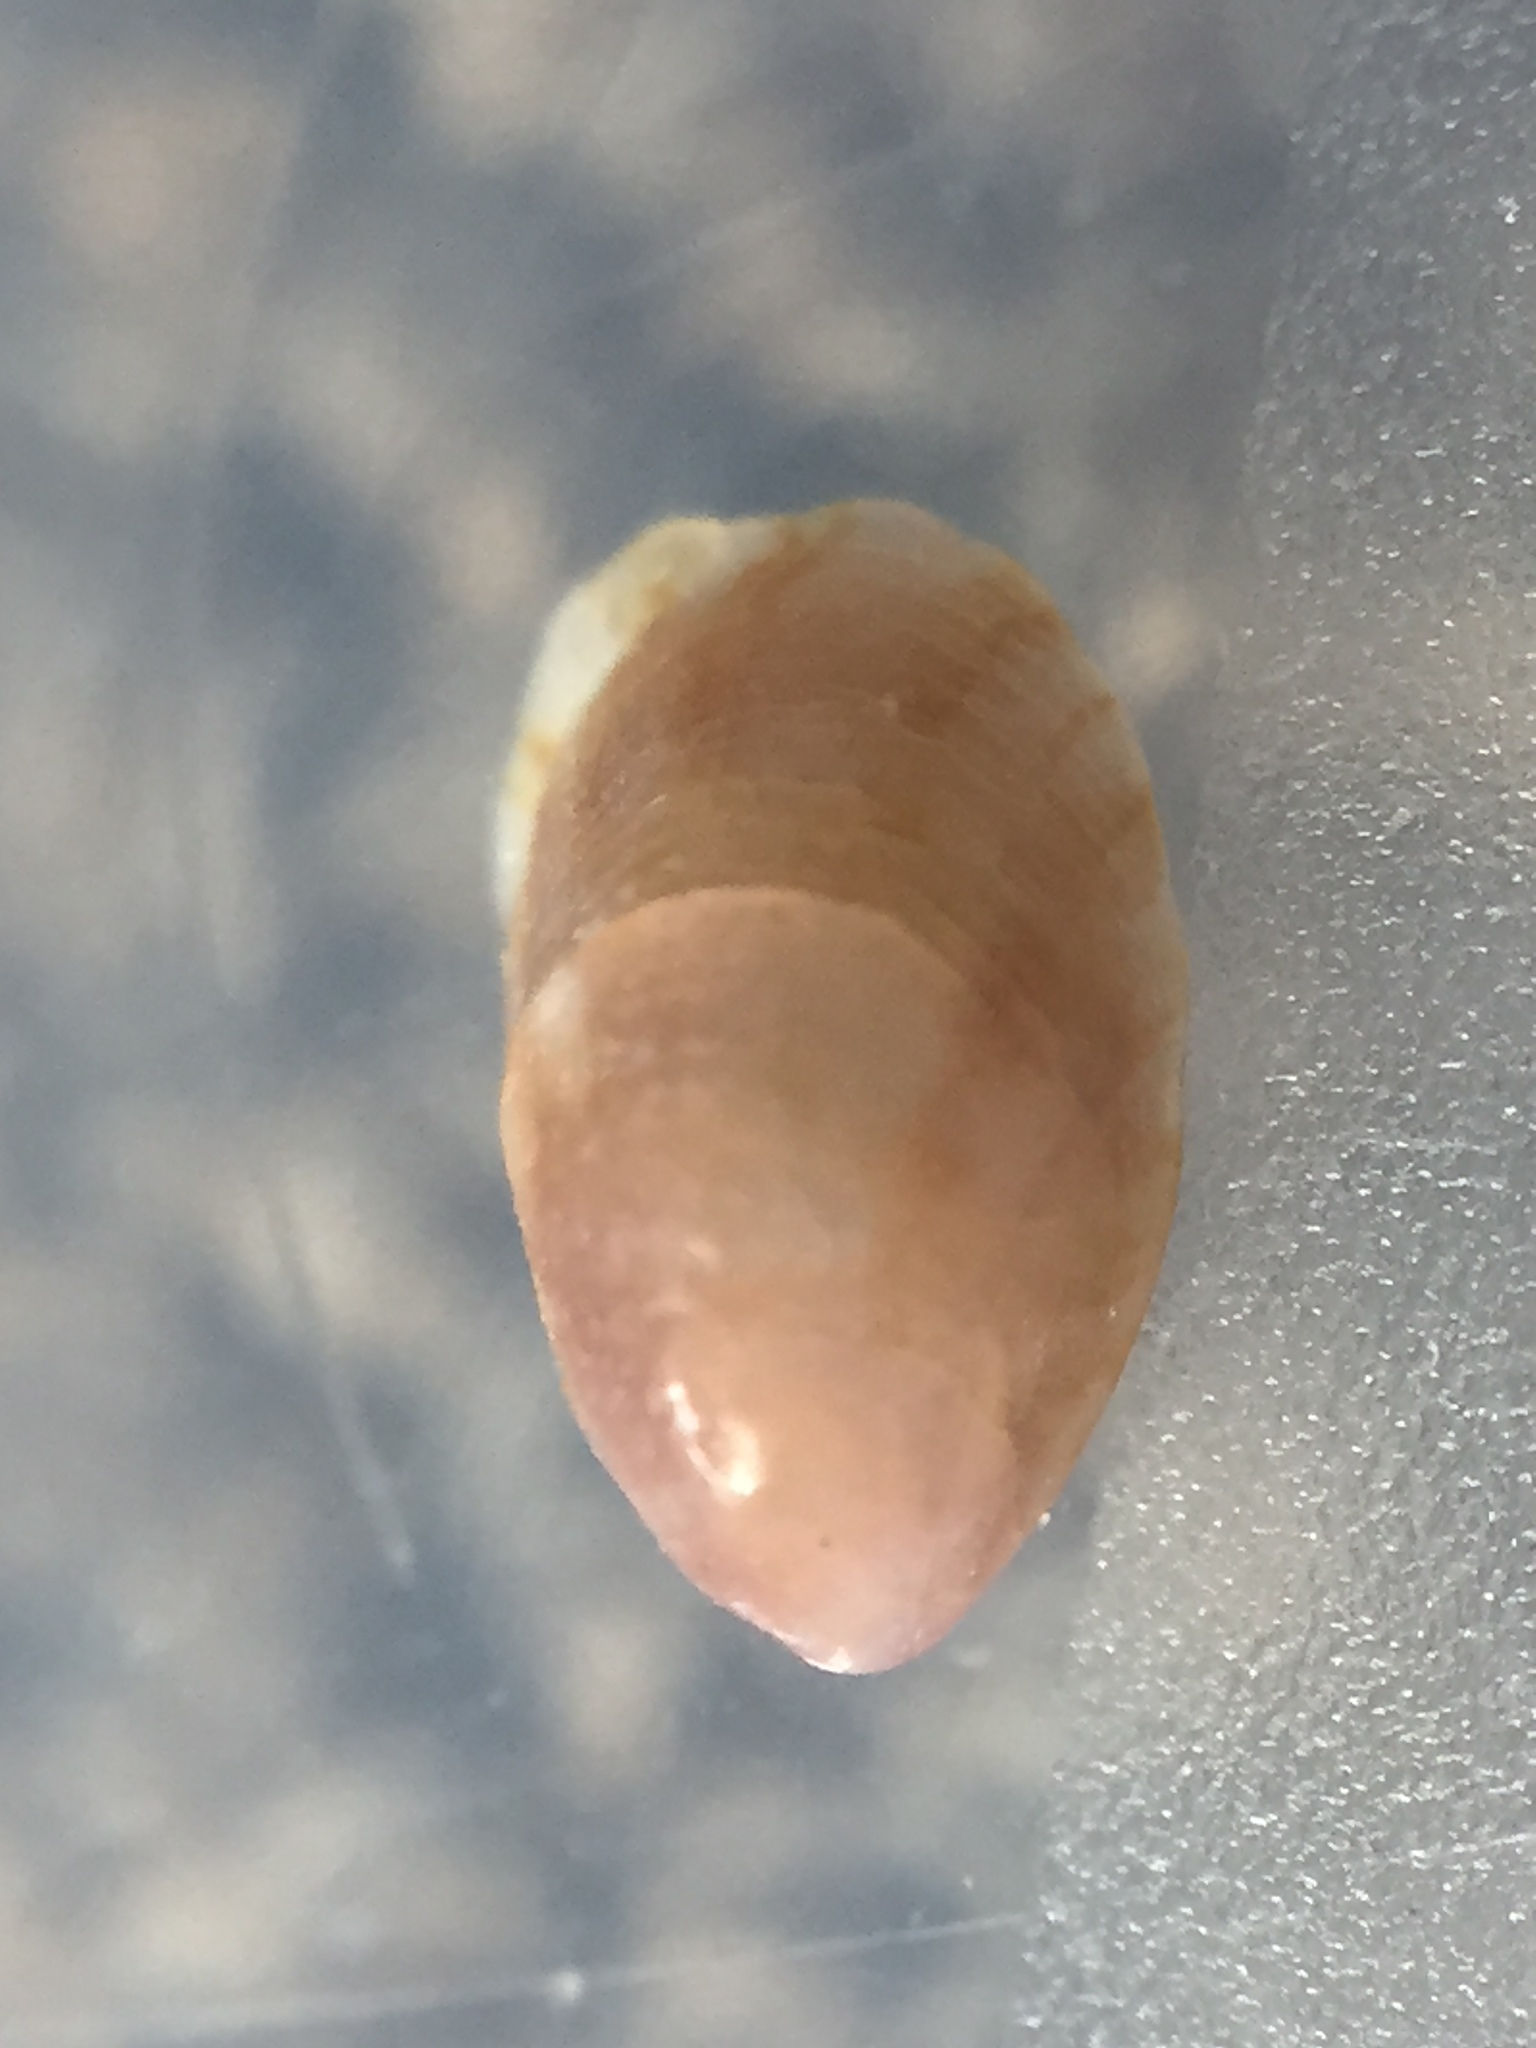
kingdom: Animalia
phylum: Mollusca
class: Gastropoda
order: Littorinimorpha
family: Calyptraeidae
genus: Maoricrypta
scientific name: Maoricrypta youngi
